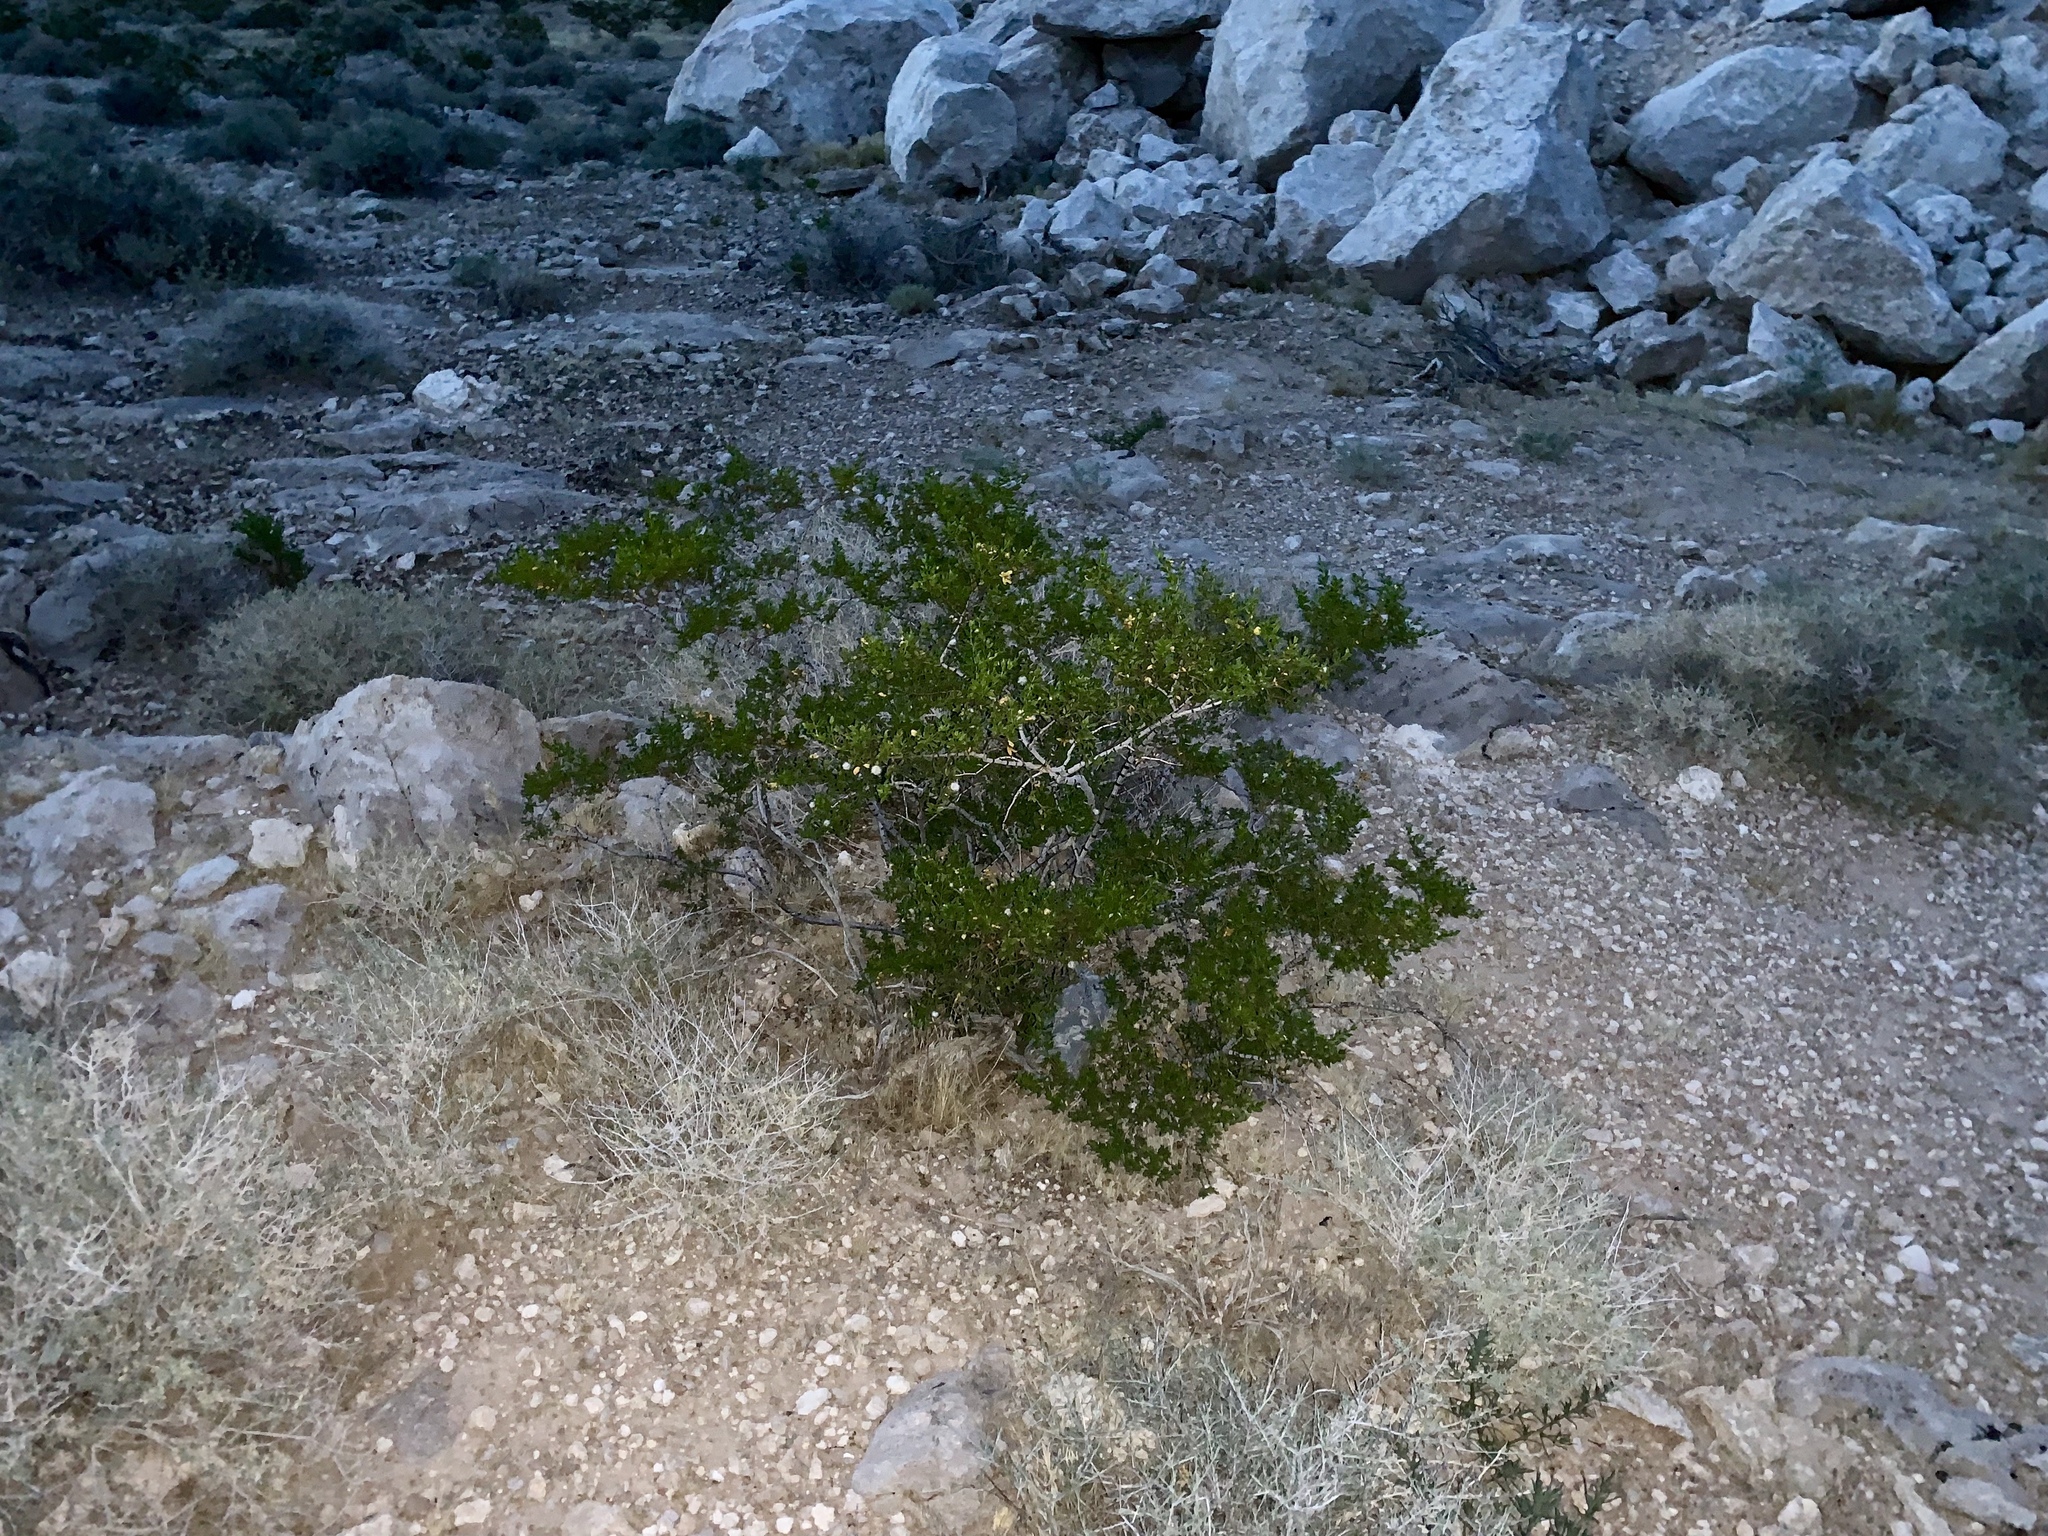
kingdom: Plantae
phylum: Tracheophyta
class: Magnoliopsida
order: Zygophyllales
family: Zygophyllaceae
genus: Larrea
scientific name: Larrea tridentata
